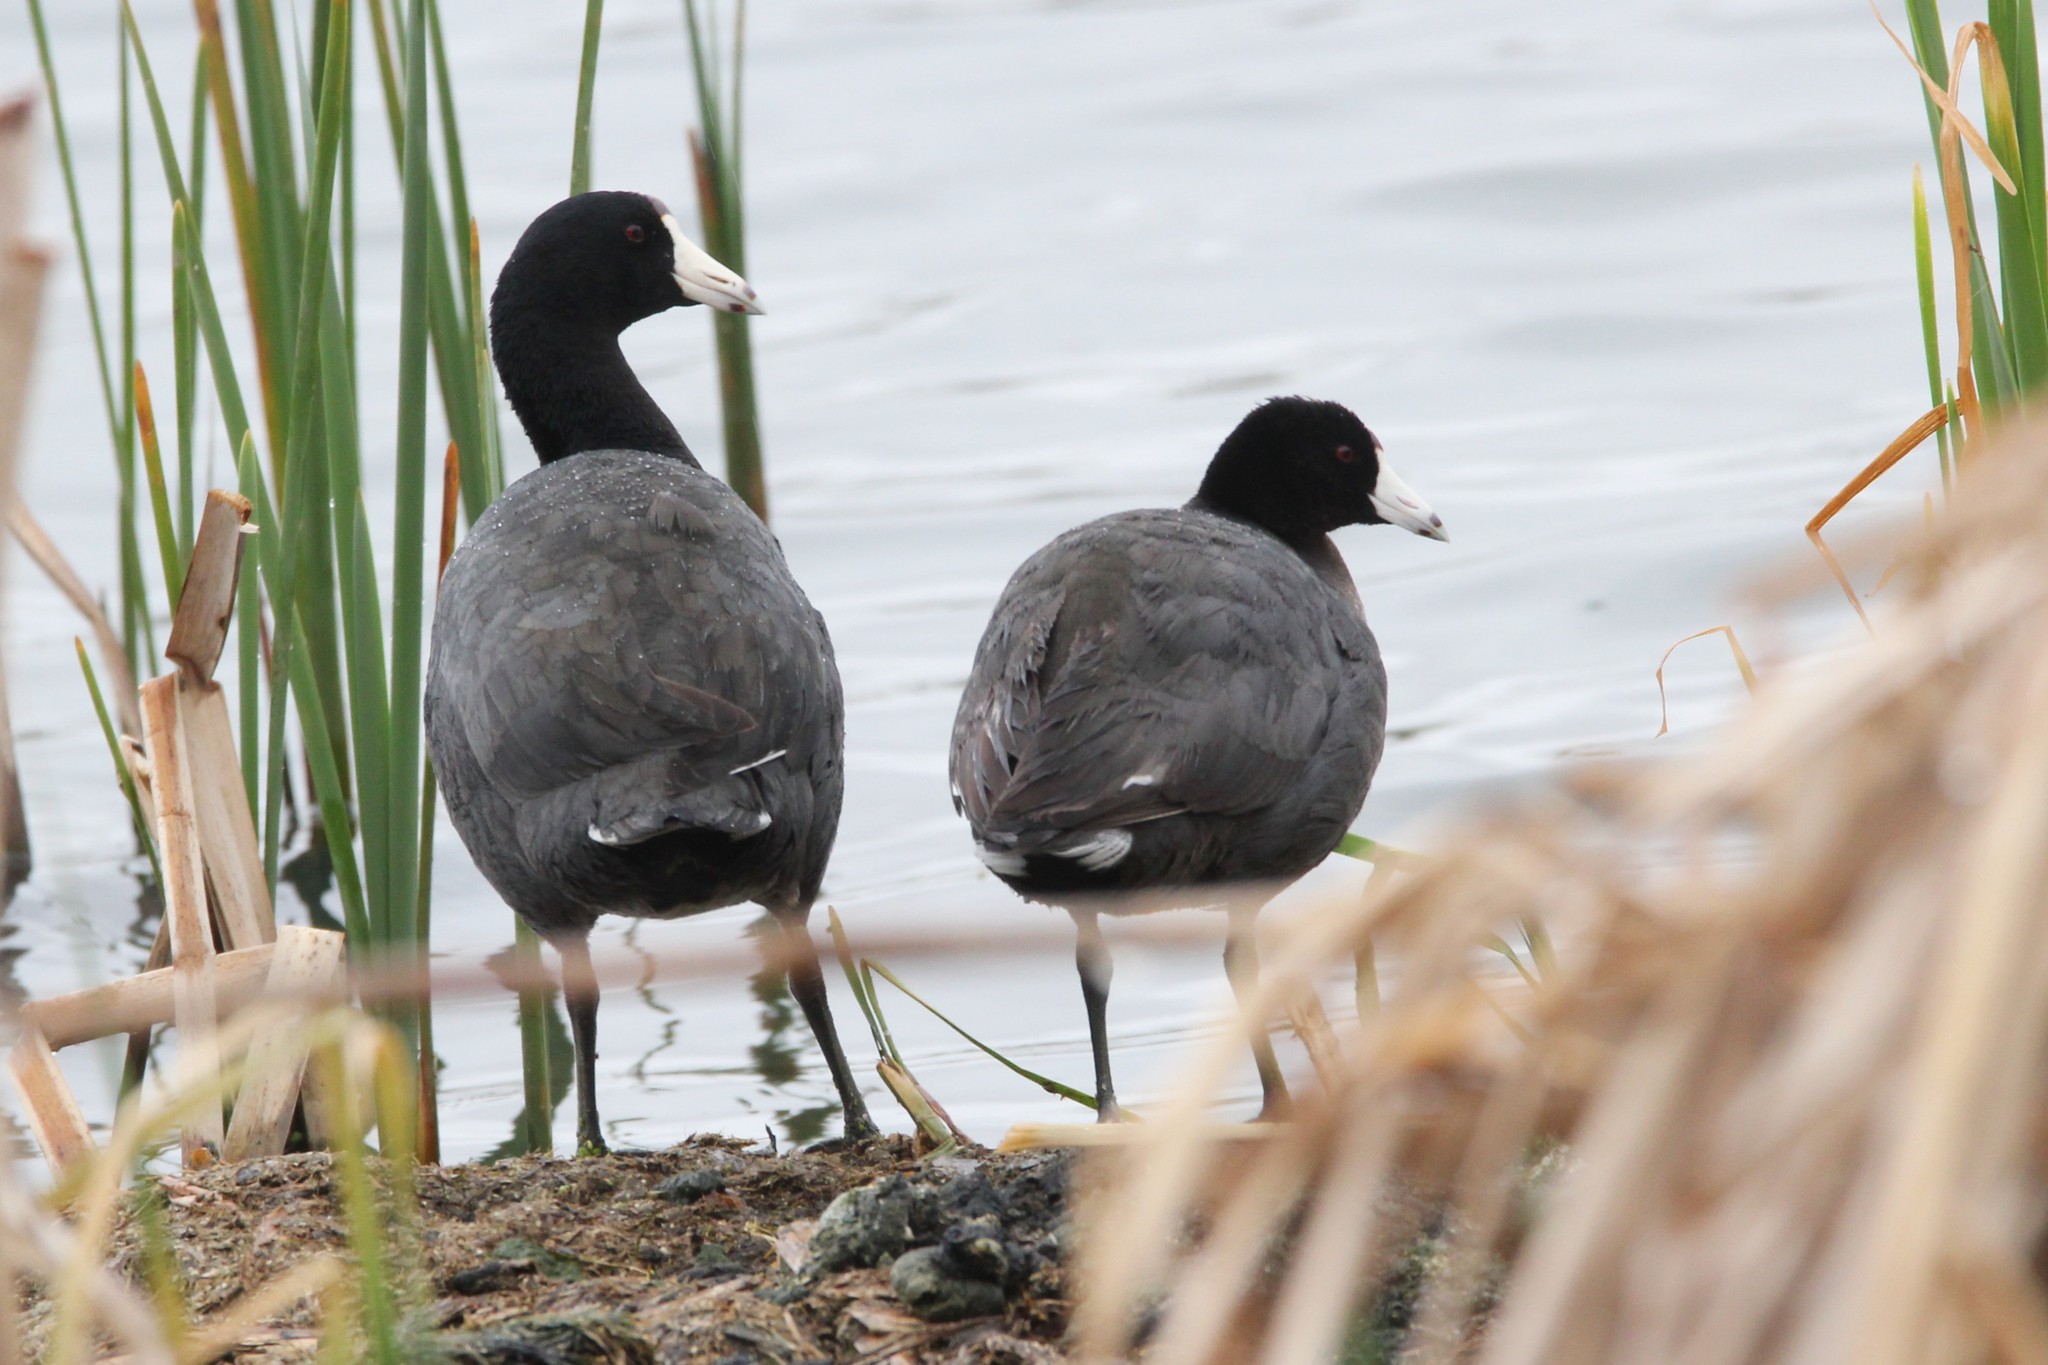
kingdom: Animalia
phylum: Chordata
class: Aves
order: Gruiformes
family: Rallidae
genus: Fulica
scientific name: Fulica americana
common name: American coot
